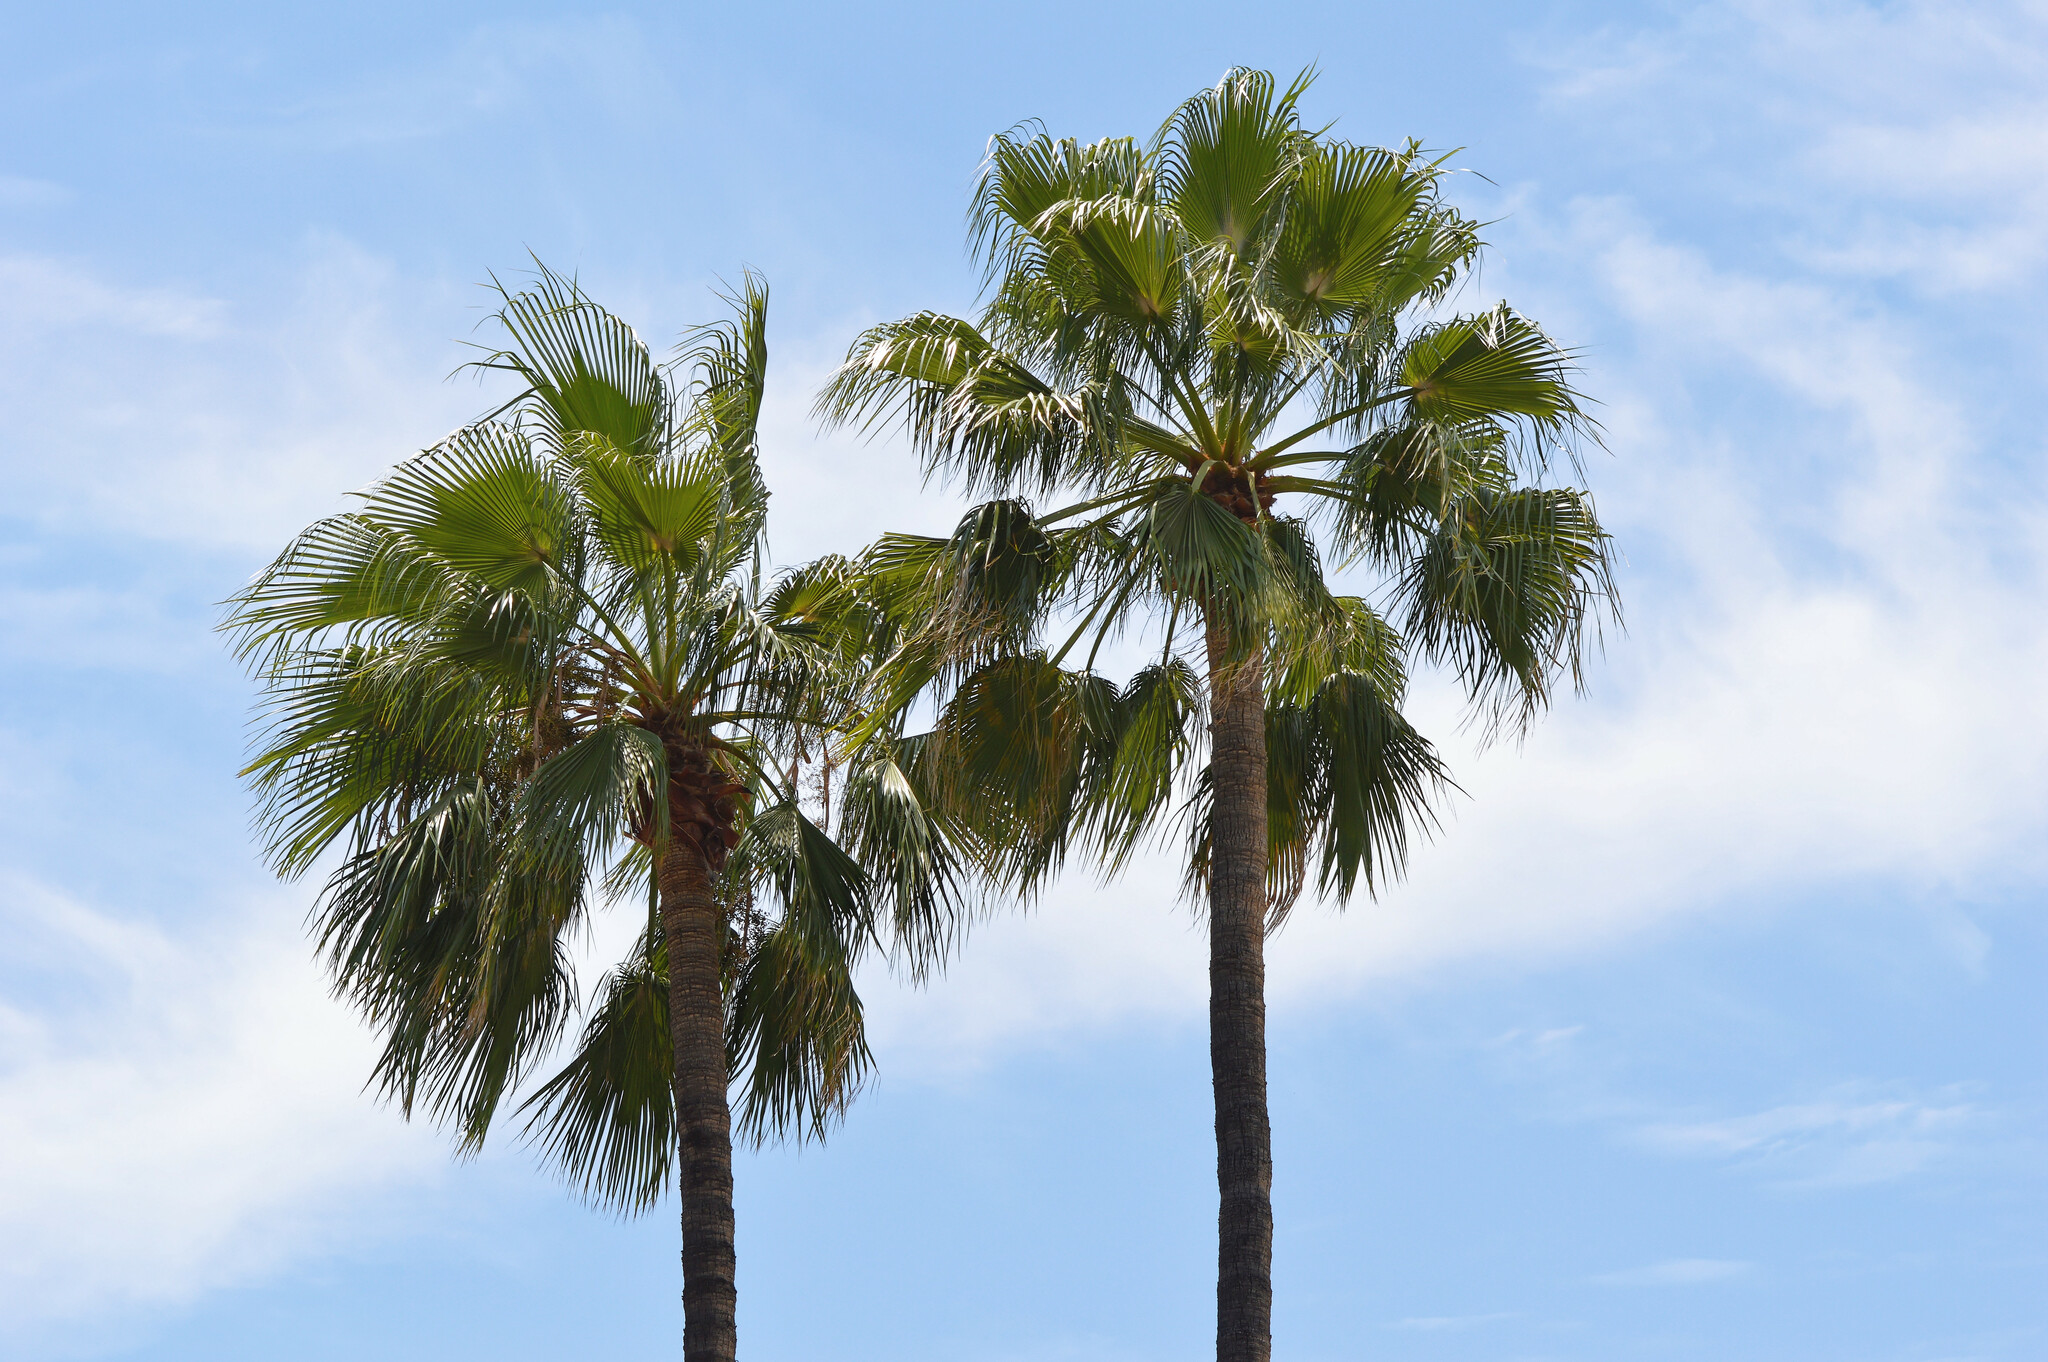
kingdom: Plantae
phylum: Tracheophyta
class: Liliopsida
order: Arecales
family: Arecaceae
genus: Washingtonia
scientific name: Washingtonia robusta
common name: Mexican fan palm
